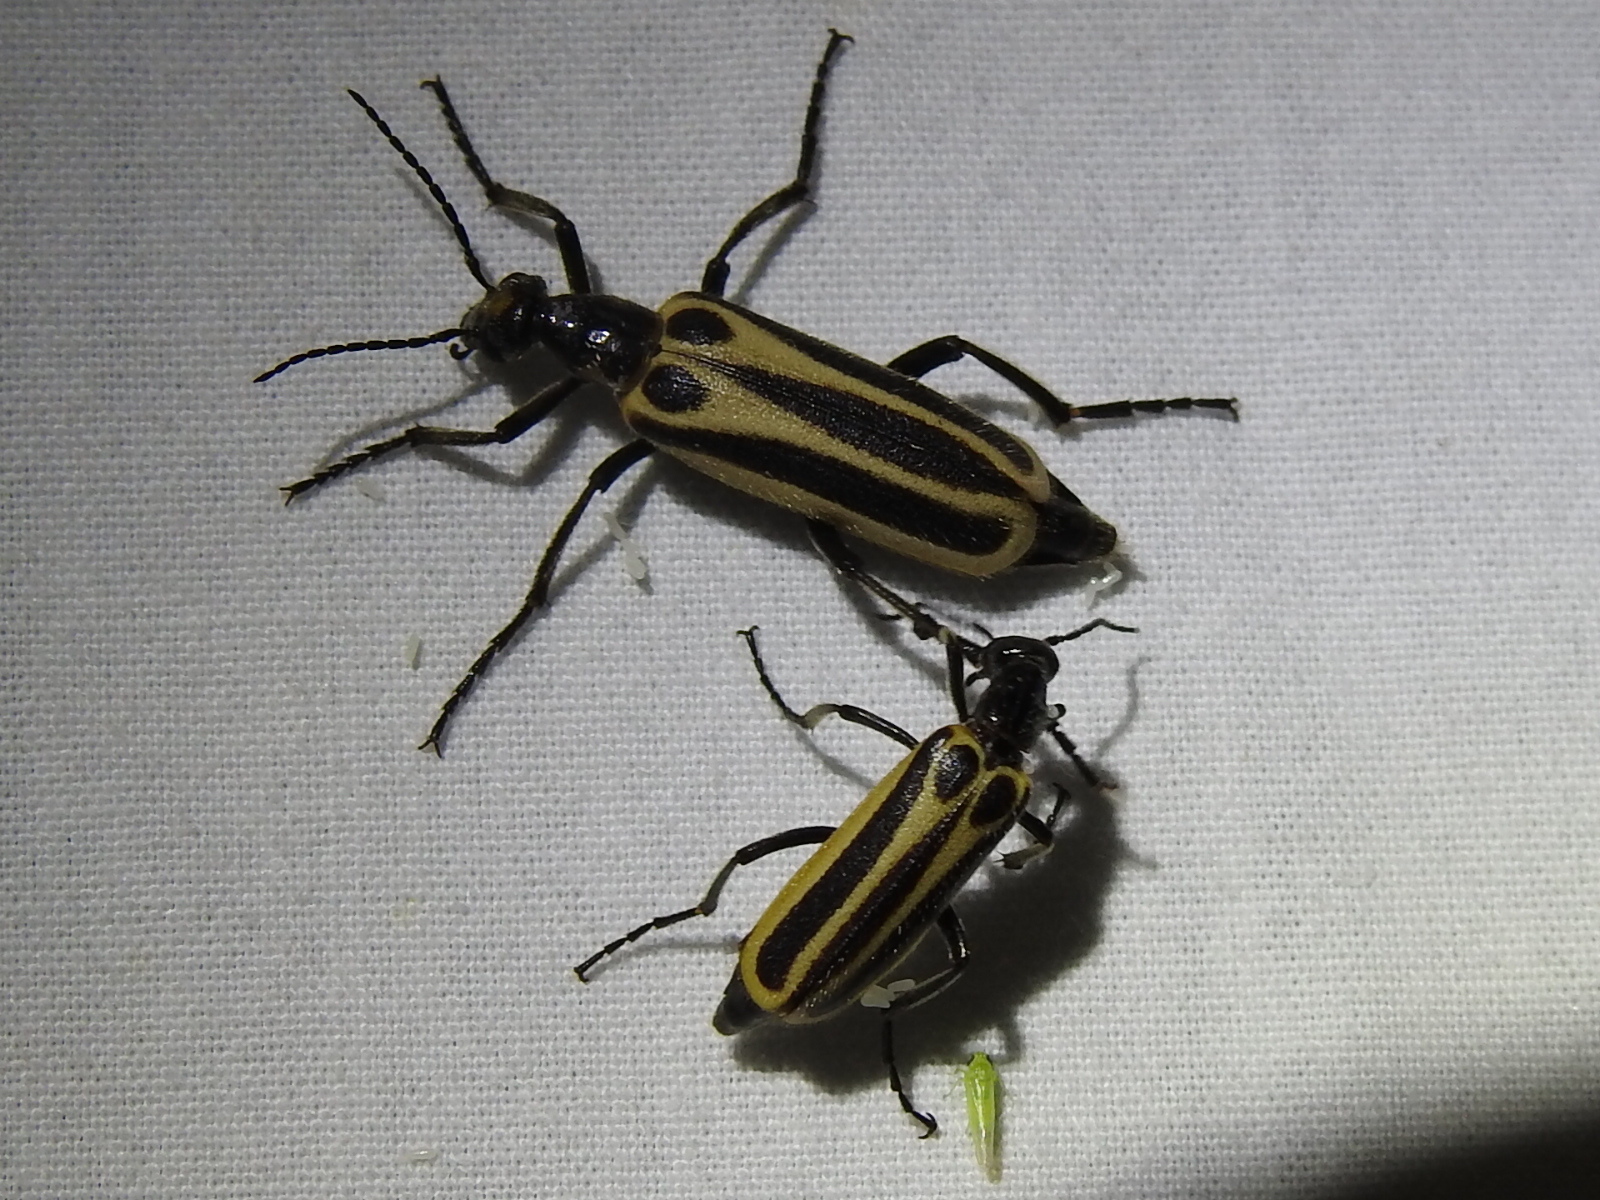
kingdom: Animalia
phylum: Arthropoda
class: Insecta
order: Coleoptera
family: Meloidae
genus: Pyrota
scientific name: Pyrota invita
